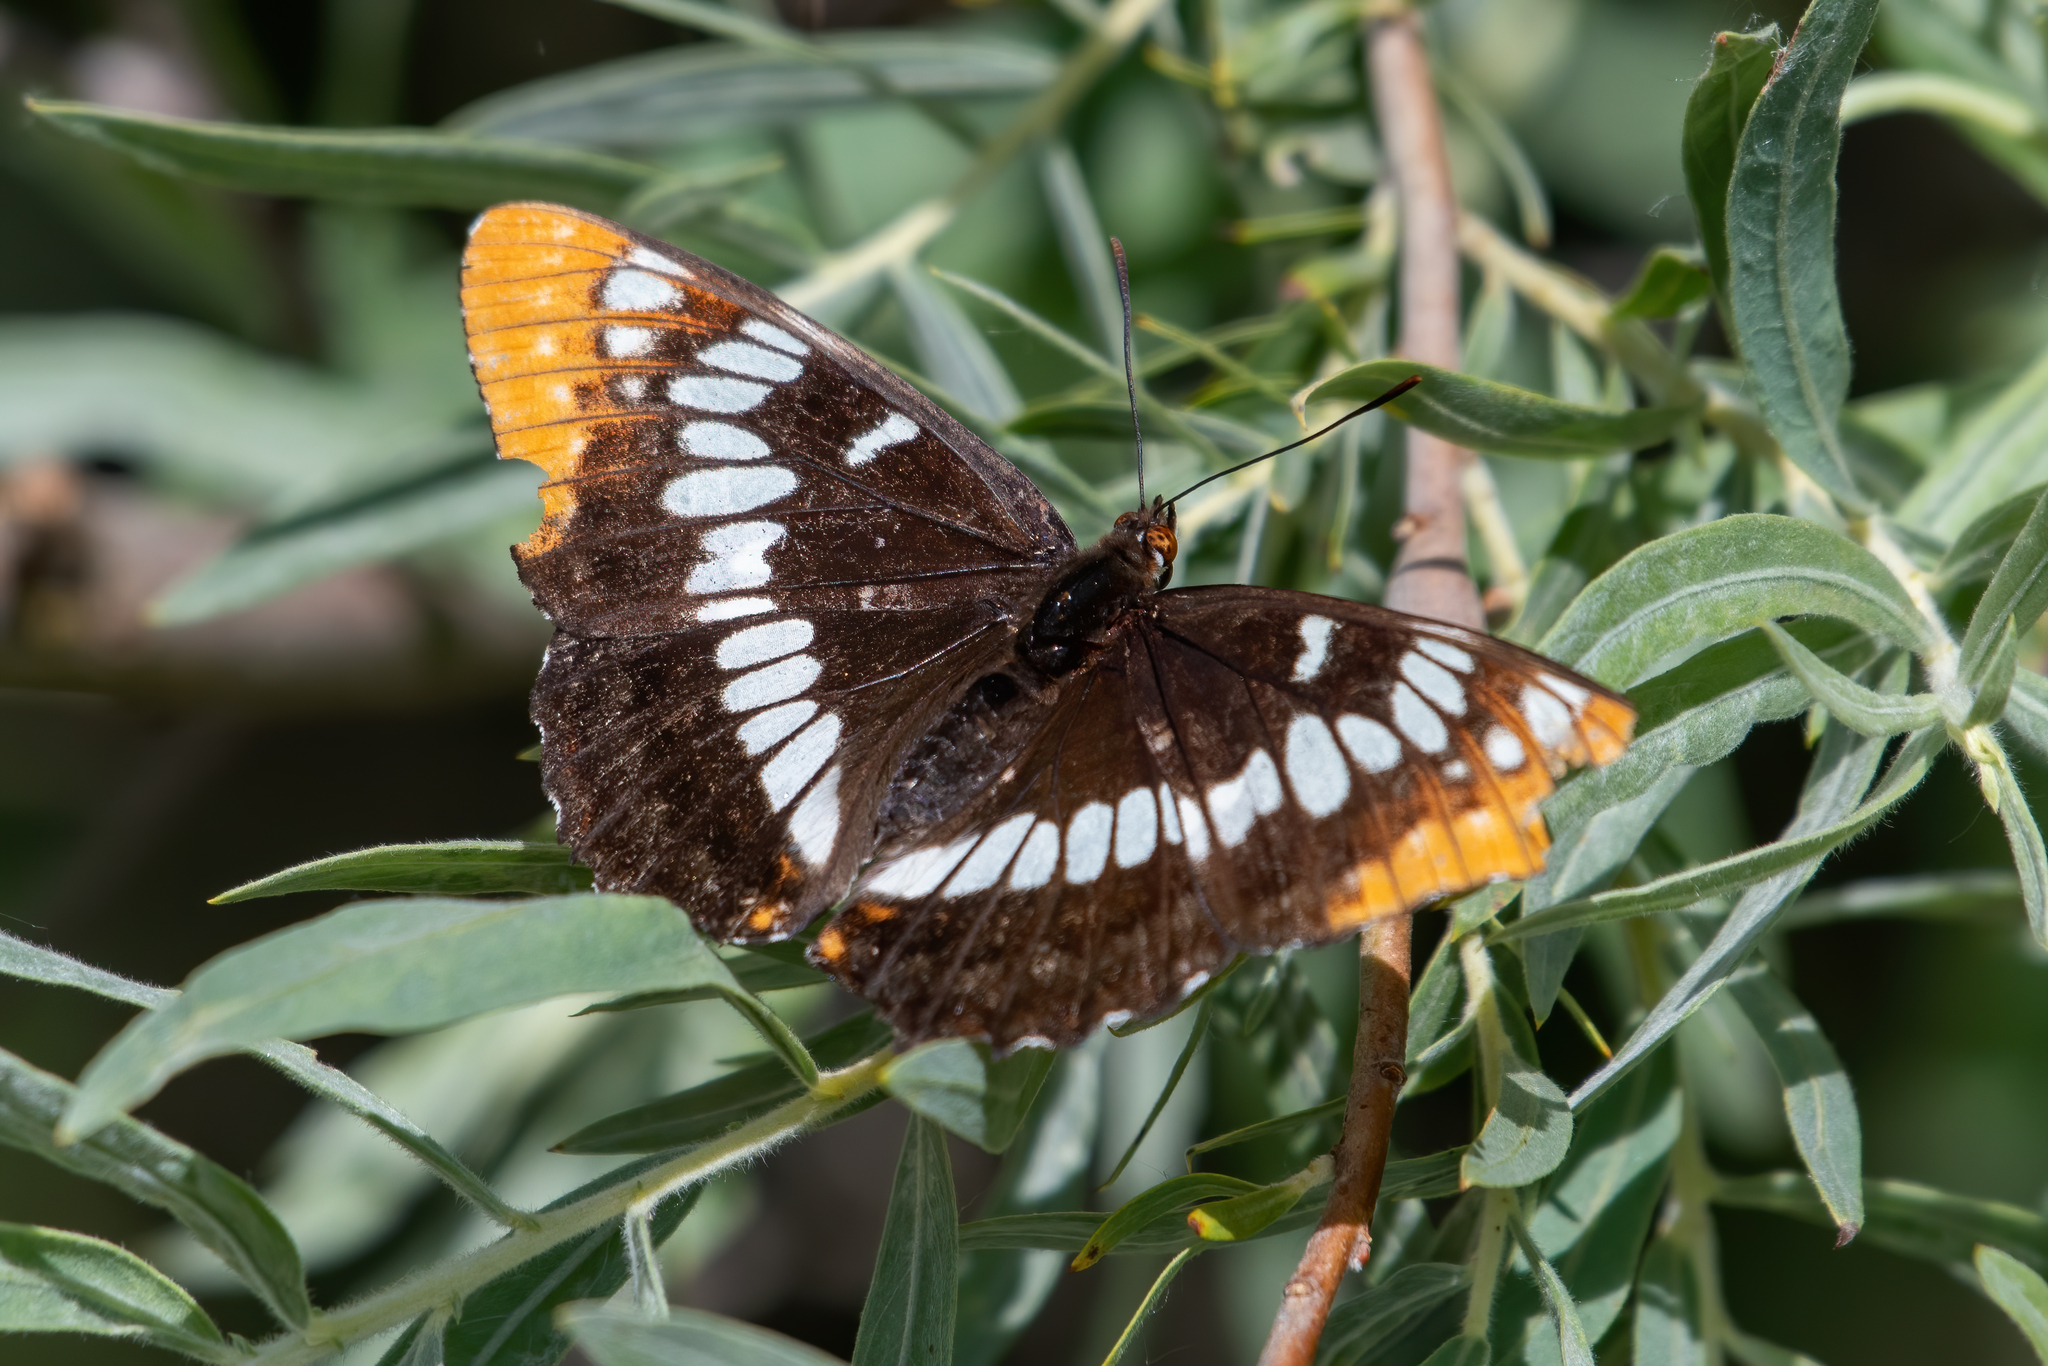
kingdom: Animalia
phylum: Arthropoda
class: Insecta
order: Lepidoptera
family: Nymphalidae
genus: Limenitis
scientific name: Limenitis lorquini
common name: Lorquin's admiral
